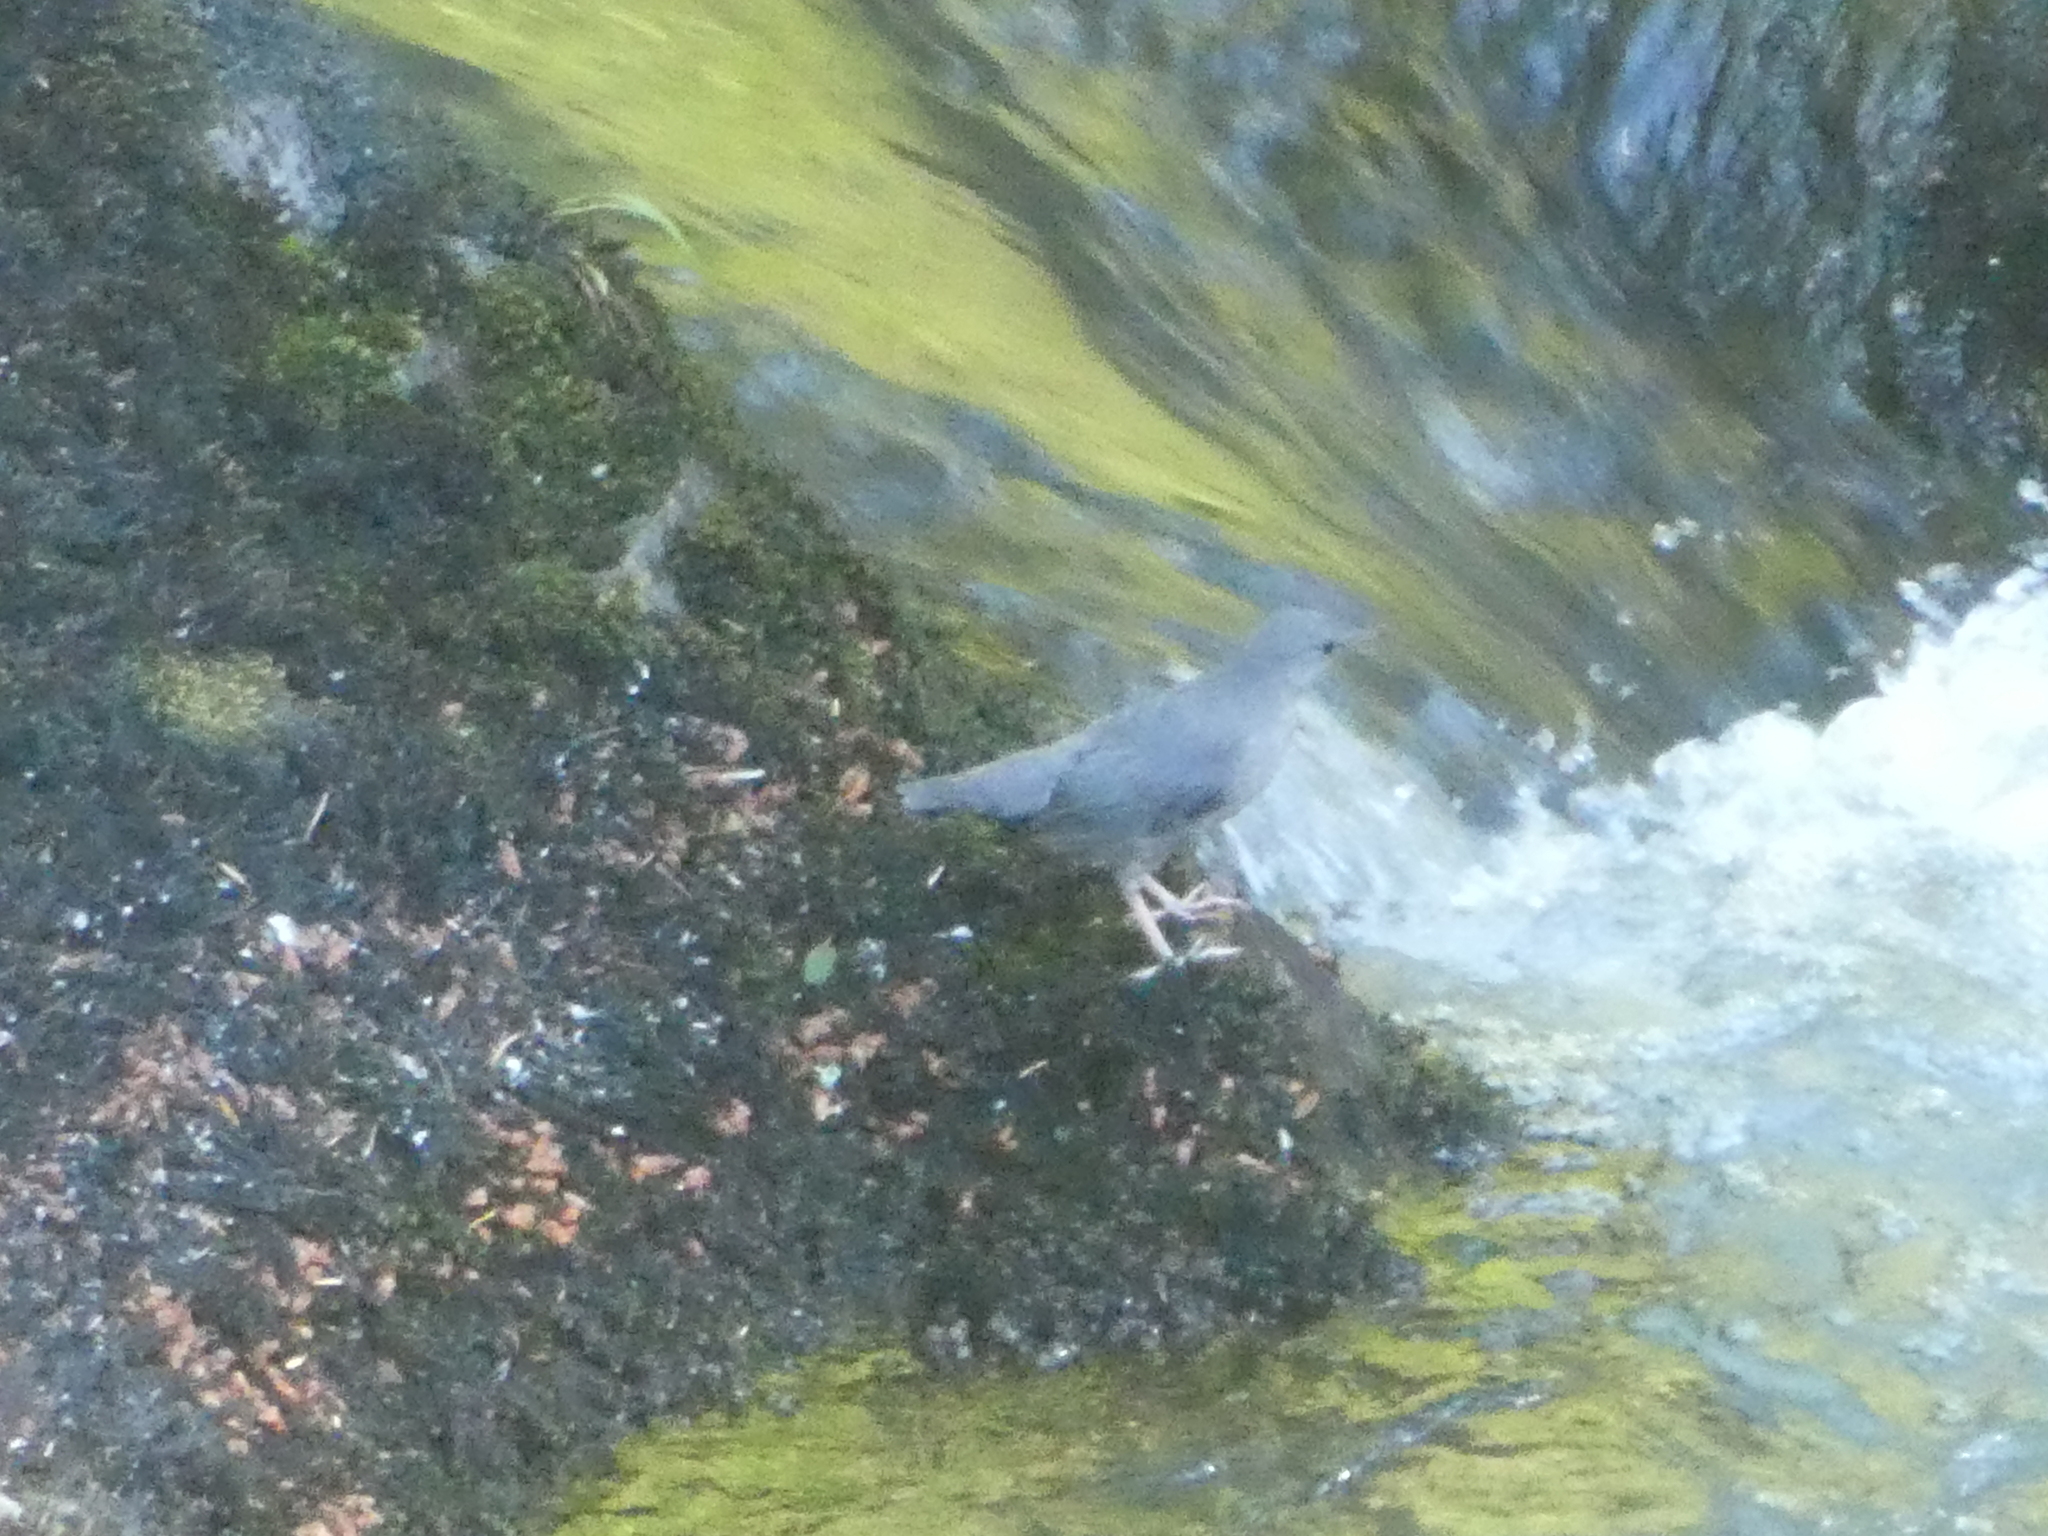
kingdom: Animalia
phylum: Chordata
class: Aves
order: Passeriformes
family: Cinclidae
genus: Cinclus
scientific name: Cinclus mexicanus
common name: American dipper
